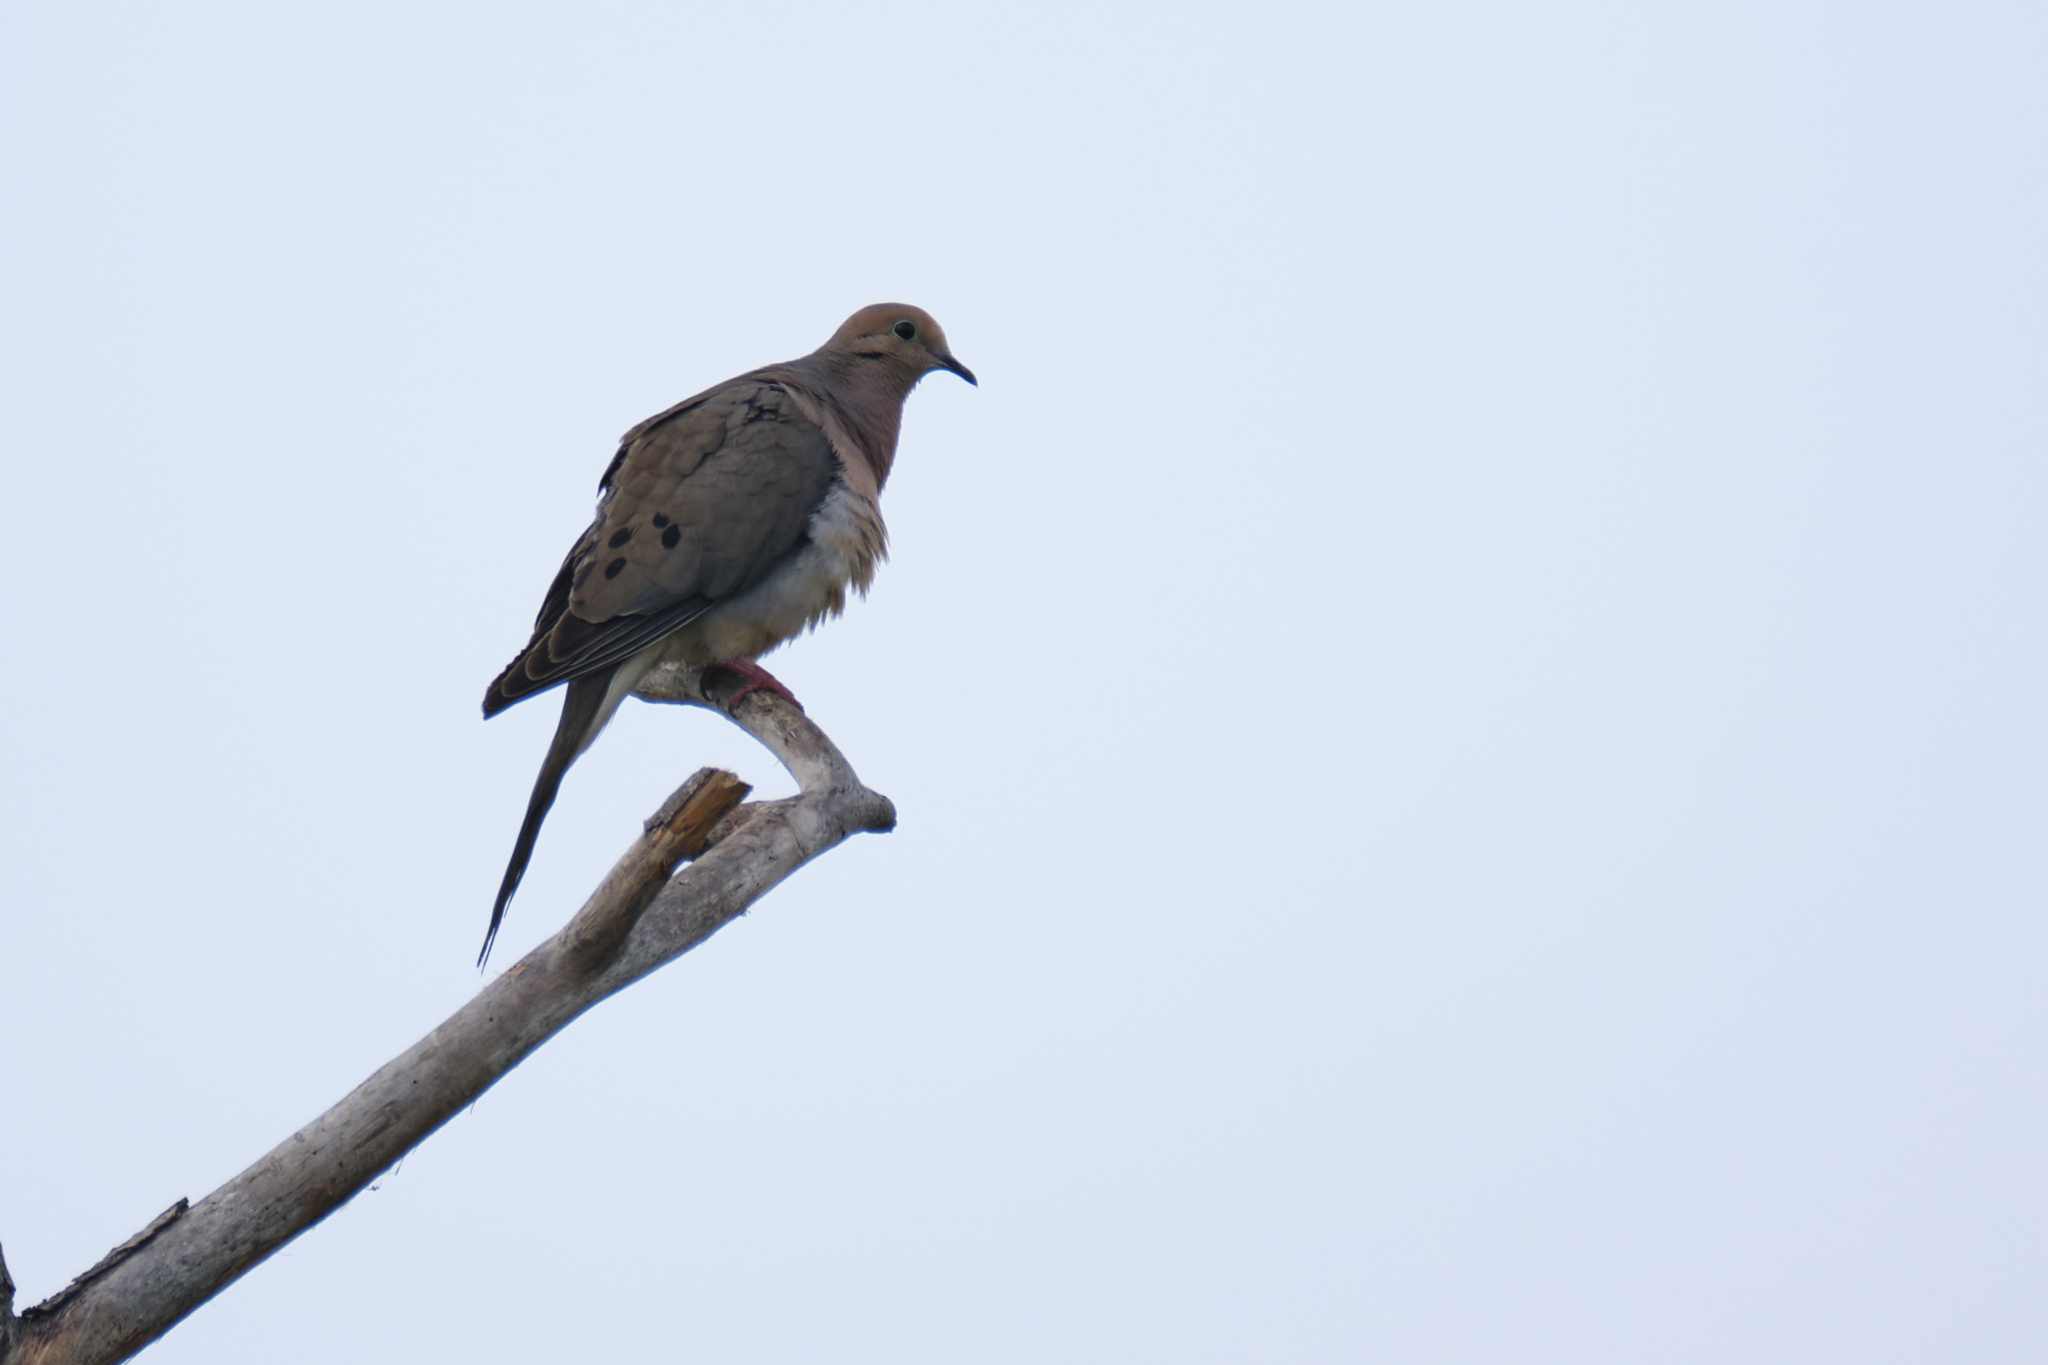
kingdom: Animalia
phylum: Chordata
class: Aves
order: Columbiformes
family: Columbidae
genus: Zenaida
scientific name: Zenaida macroura
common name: Mourning dove
